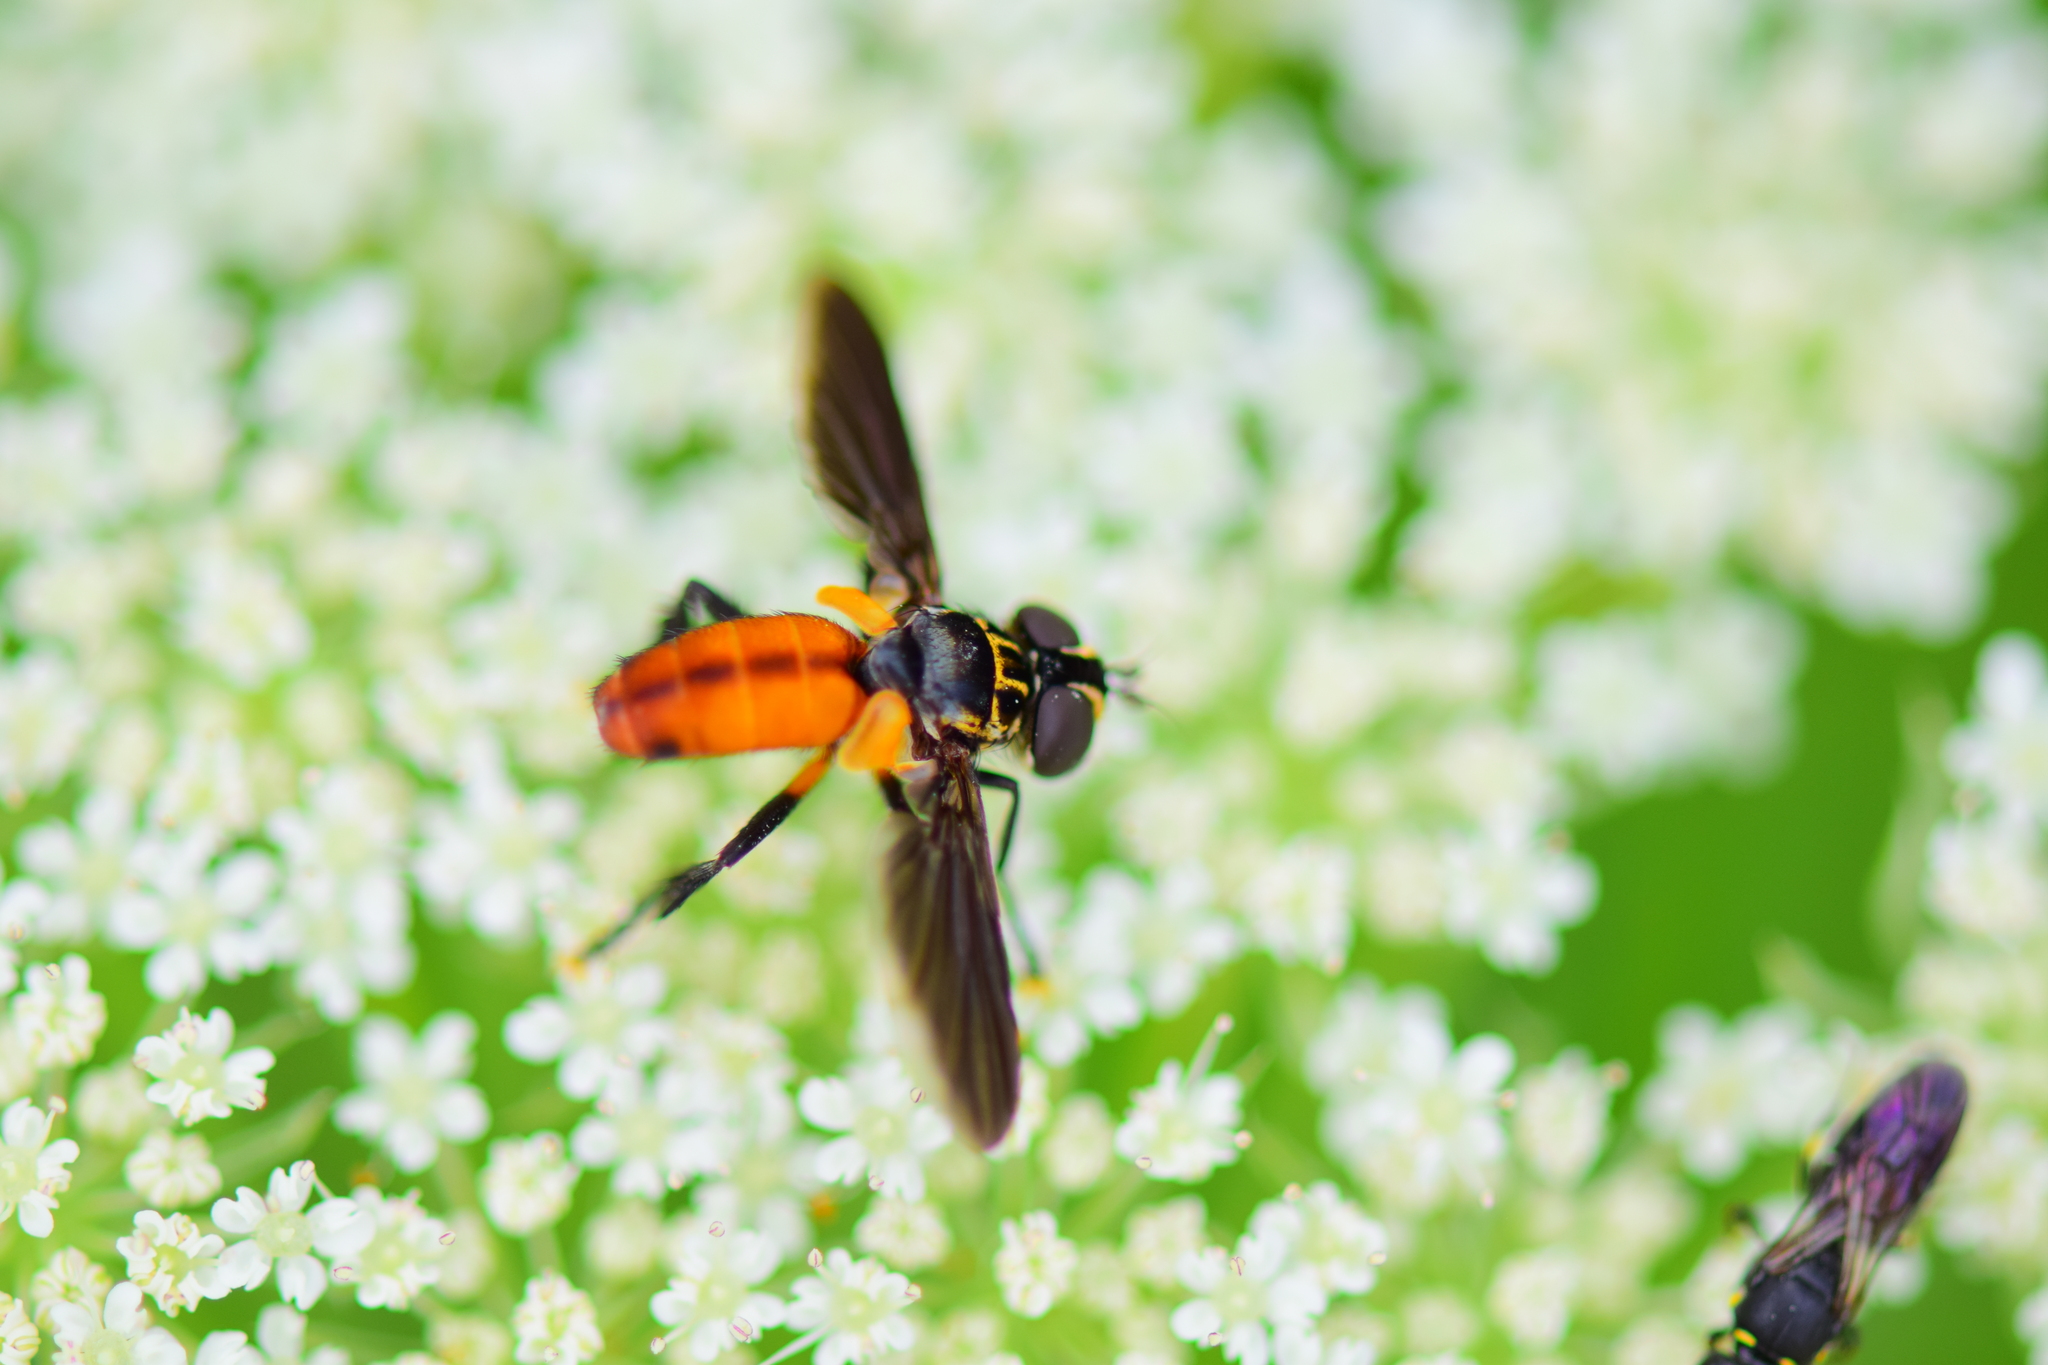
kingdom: Animalia
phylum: Arthropoda
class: Insecta
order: Diptera
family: Tachinidae
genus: Trichopoda
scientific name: Trichopoda pennipes
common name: Tachinid fly
